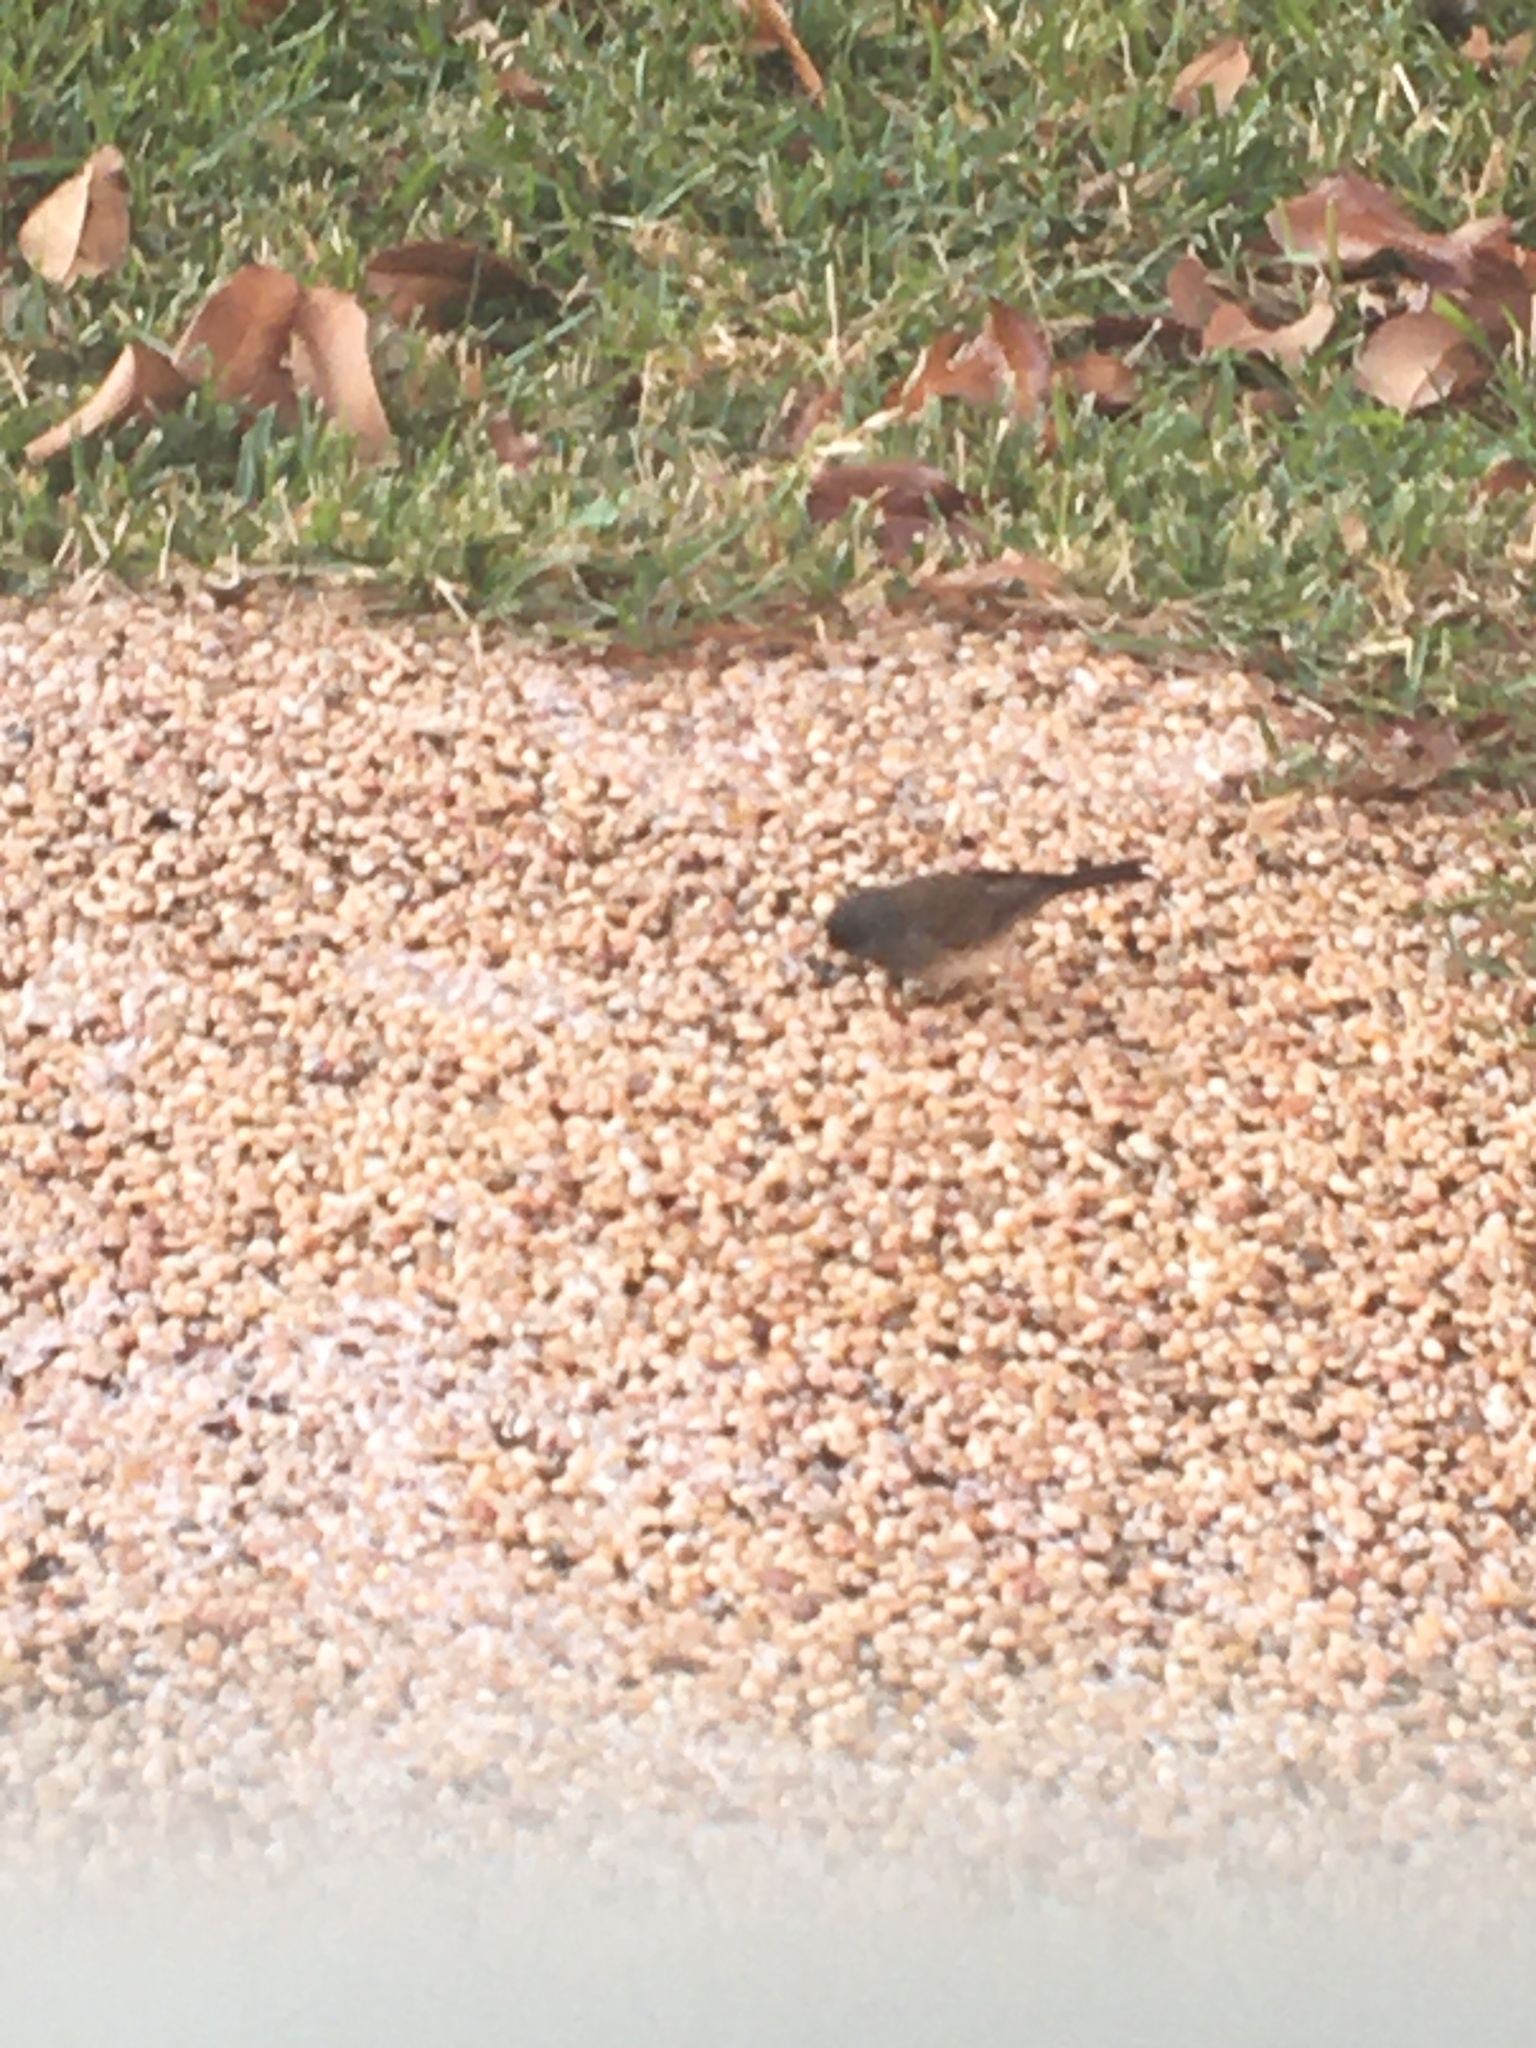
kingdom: Animalia
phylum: Chordata
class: Aves
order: Passeriformes
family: Passerellidae
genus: Junco
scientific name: Junco hyemalis
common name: Dark-eyed junco
